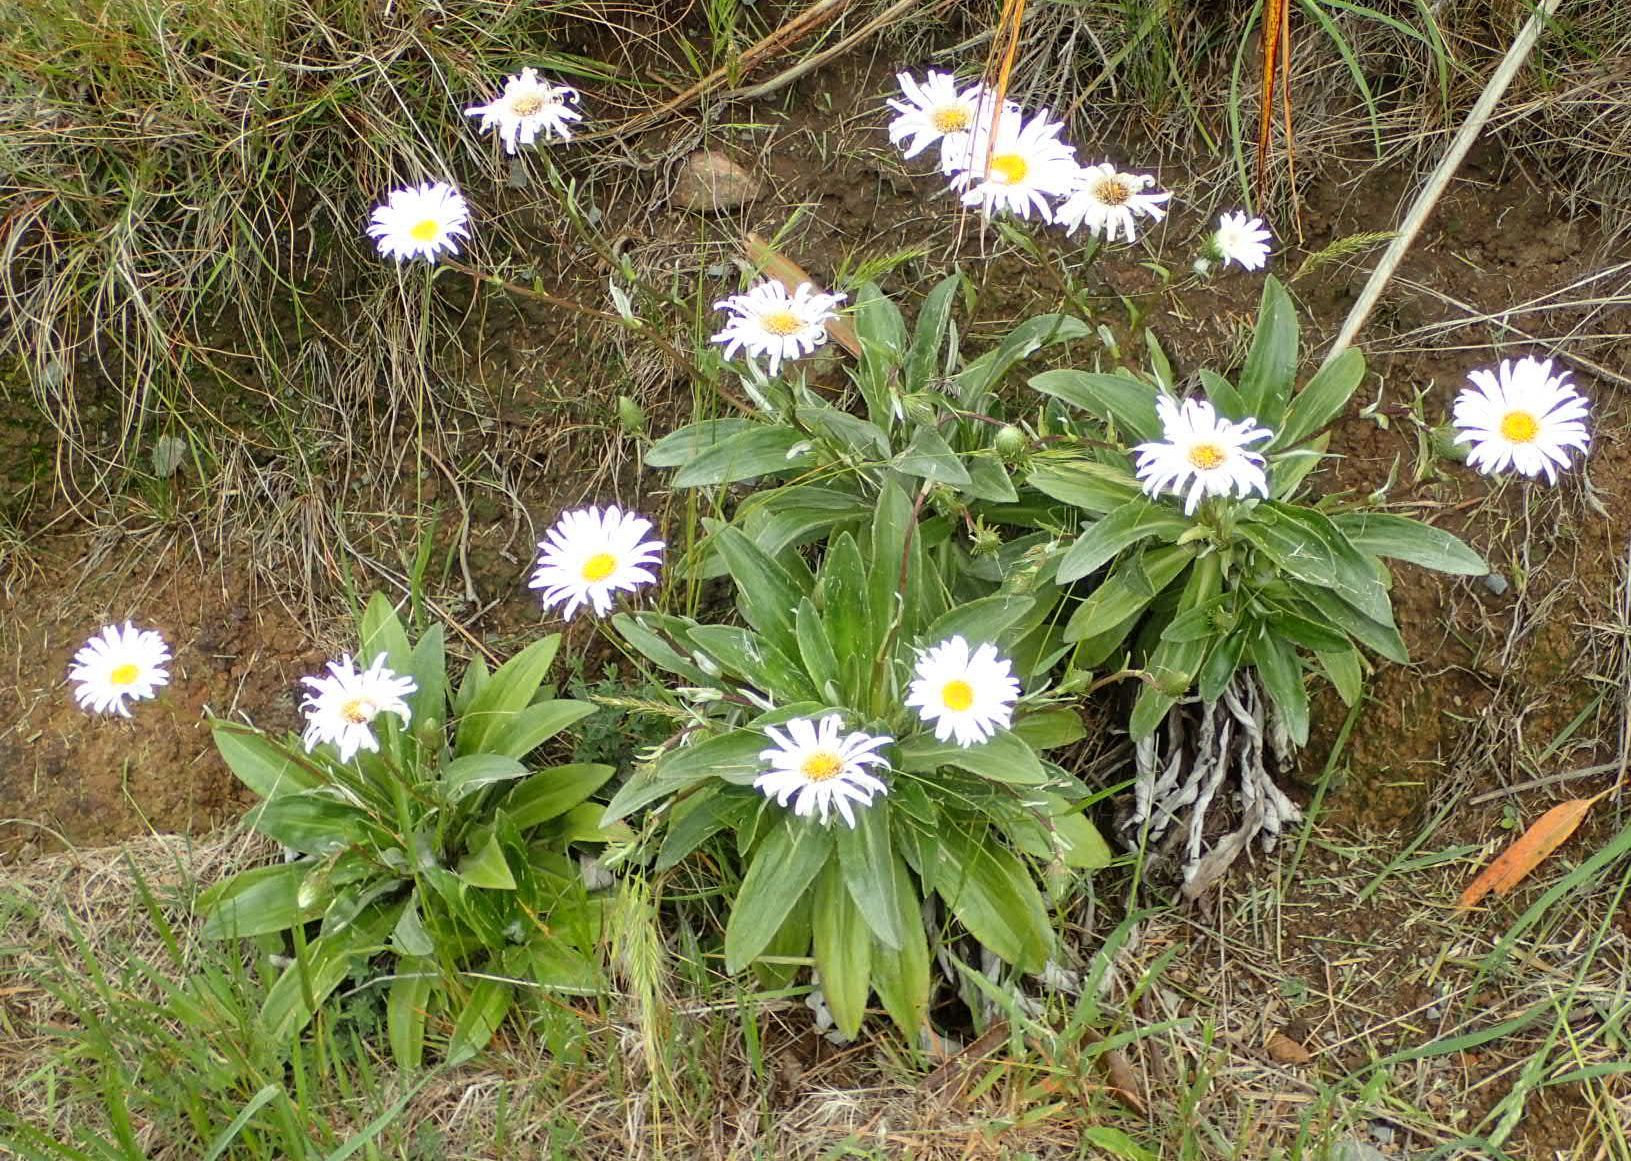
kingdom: Plantae
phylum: Tracheophyta
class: Magnoliopsida
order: Asterales
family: Asteraceae
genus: Celmisia
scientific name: Celmisia lindsayi
